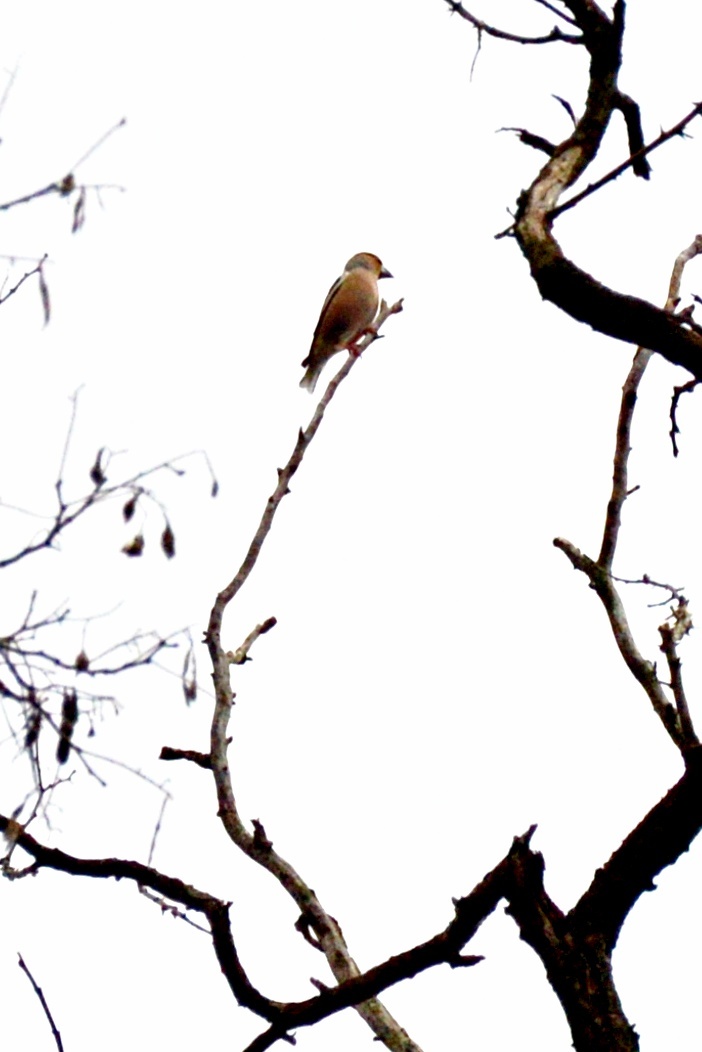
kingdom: Animalia
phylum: Chordata
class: Aves
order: Passeriformes
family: Fringillidae
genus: Coccothraustes
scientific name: Coccothraustes coccothraustes
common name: Hawfinch
